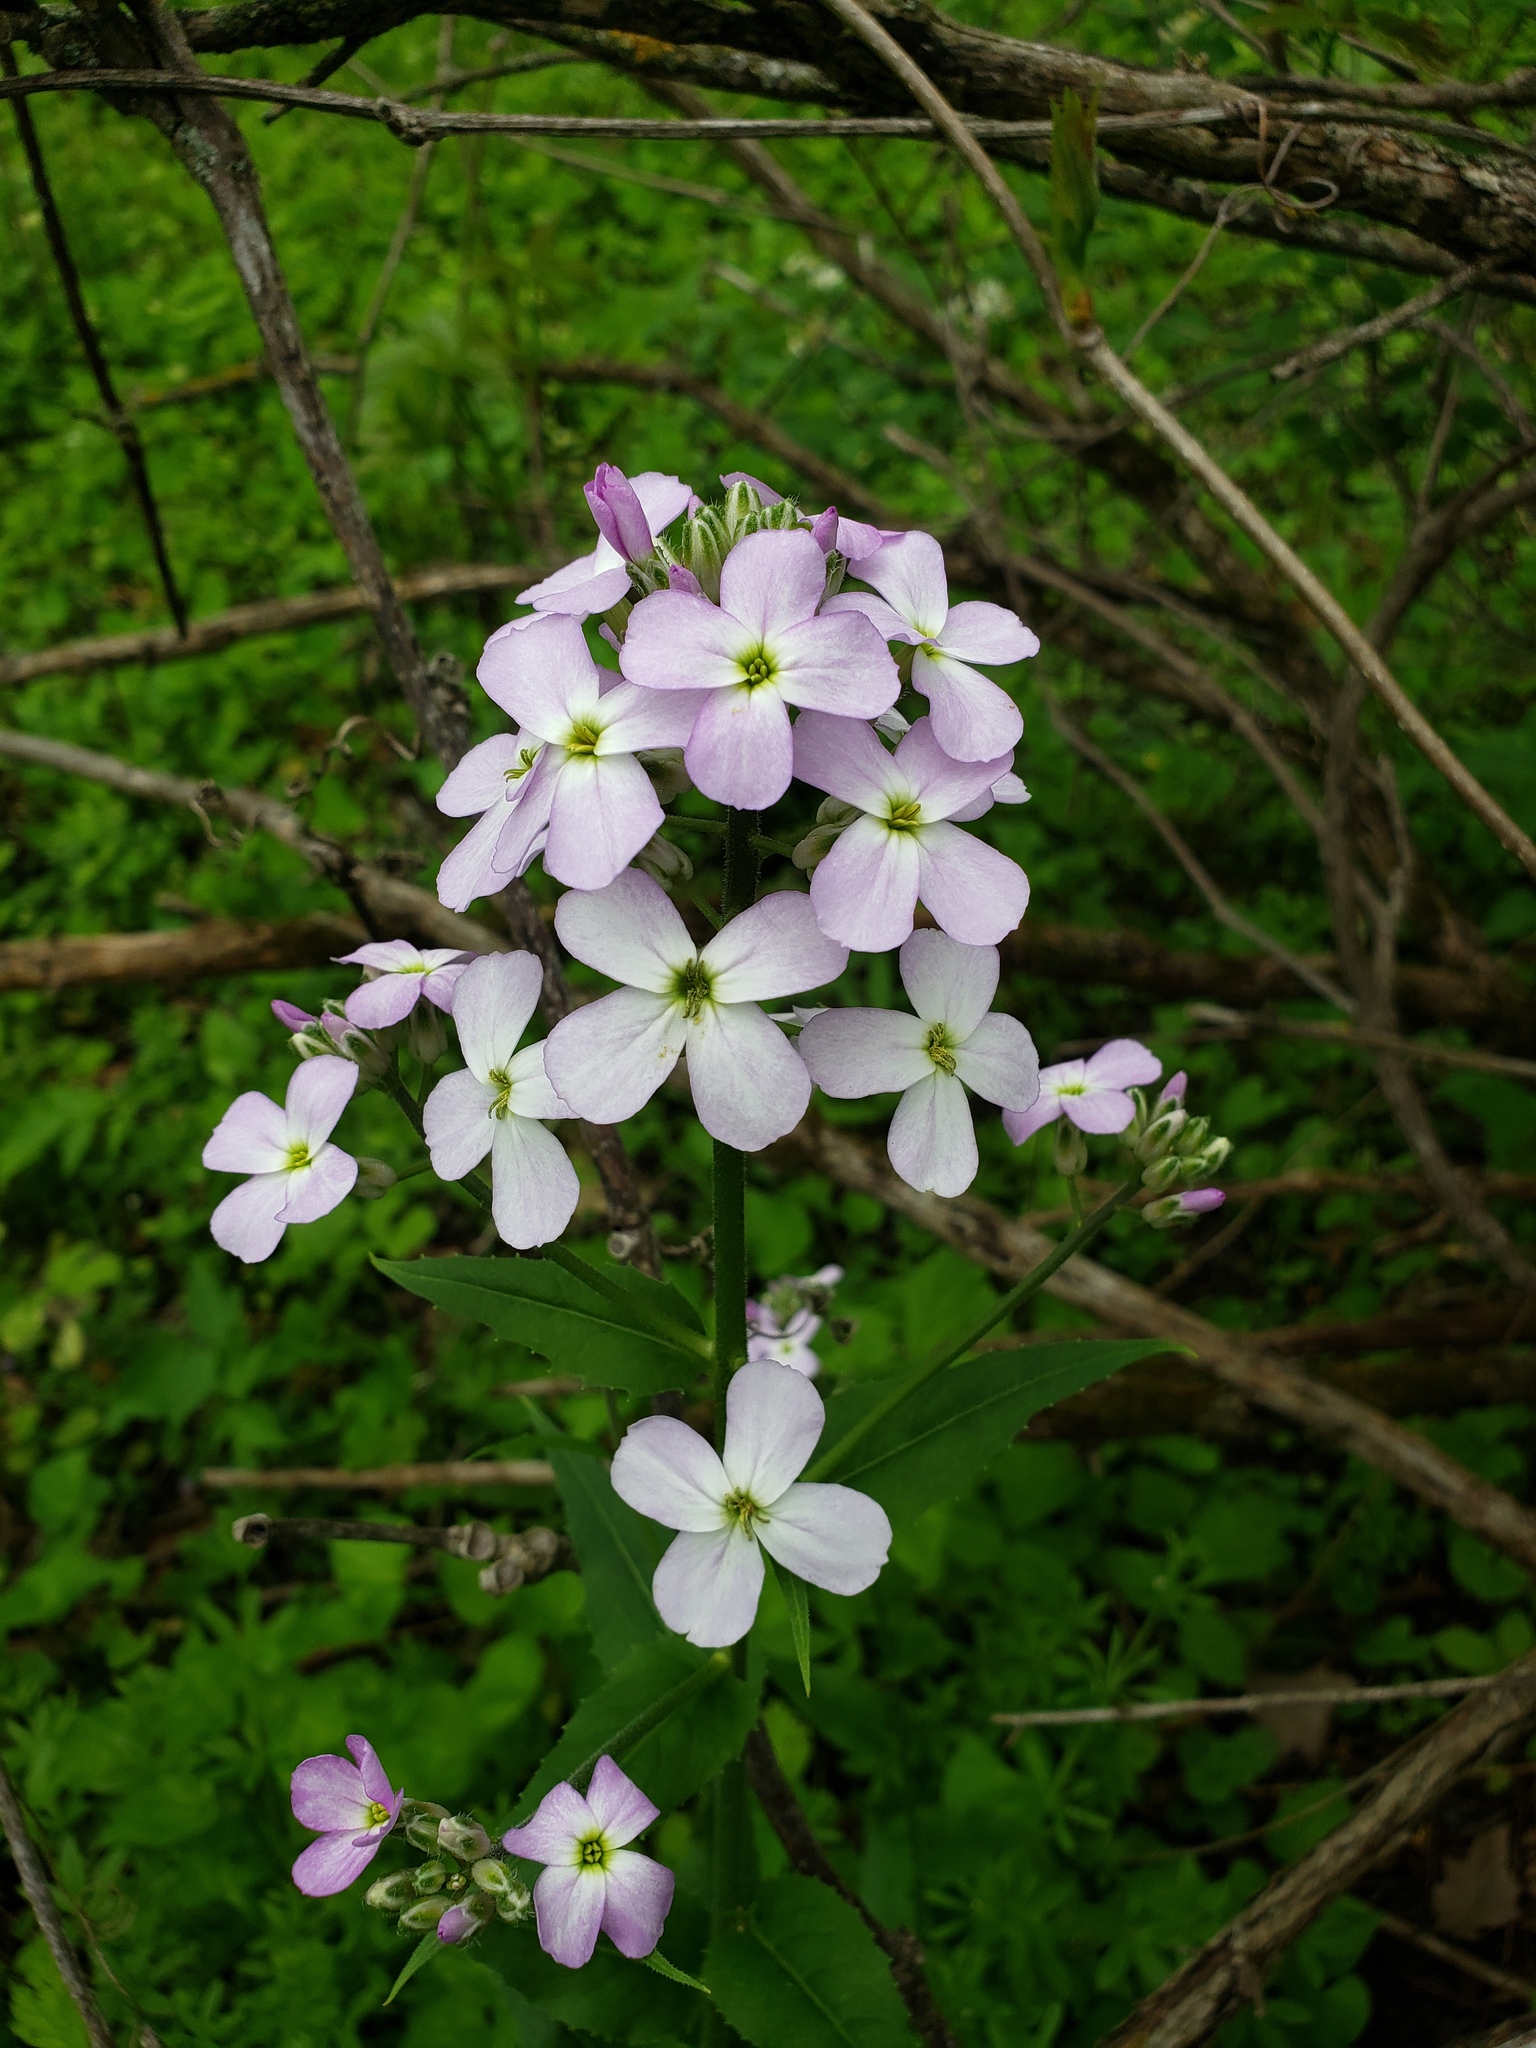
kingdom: Plantae
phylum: Tracheophyta
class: Magnoliopsida
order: Brassicales
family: Brassicaceae
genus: Hesperis
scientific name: Hesperis matronalis
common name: Dame's-violet
